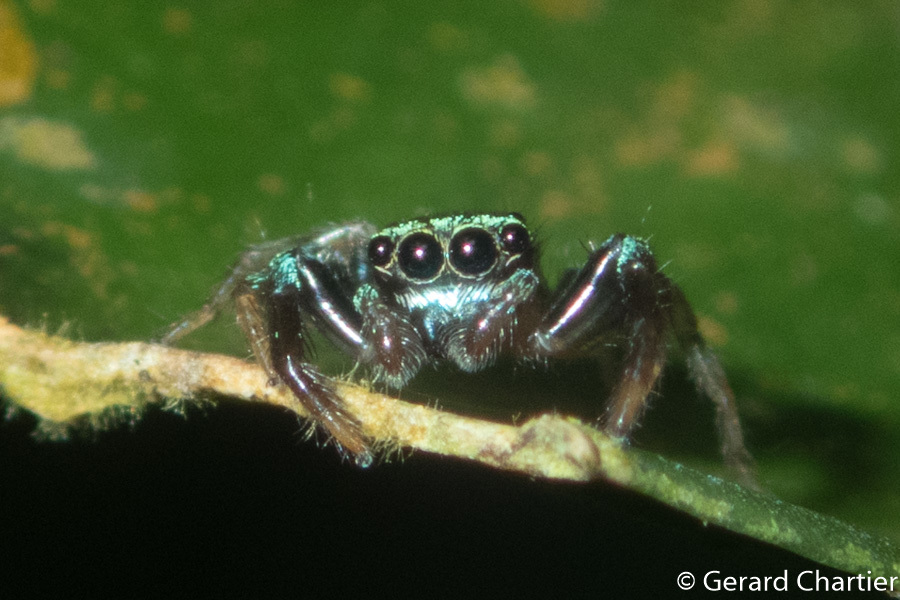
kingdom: Animalia
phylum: Arthropoda
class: Arachnida
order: Araneae
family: Salticidae
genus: Thiania
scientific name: Thiania bhamoensis
